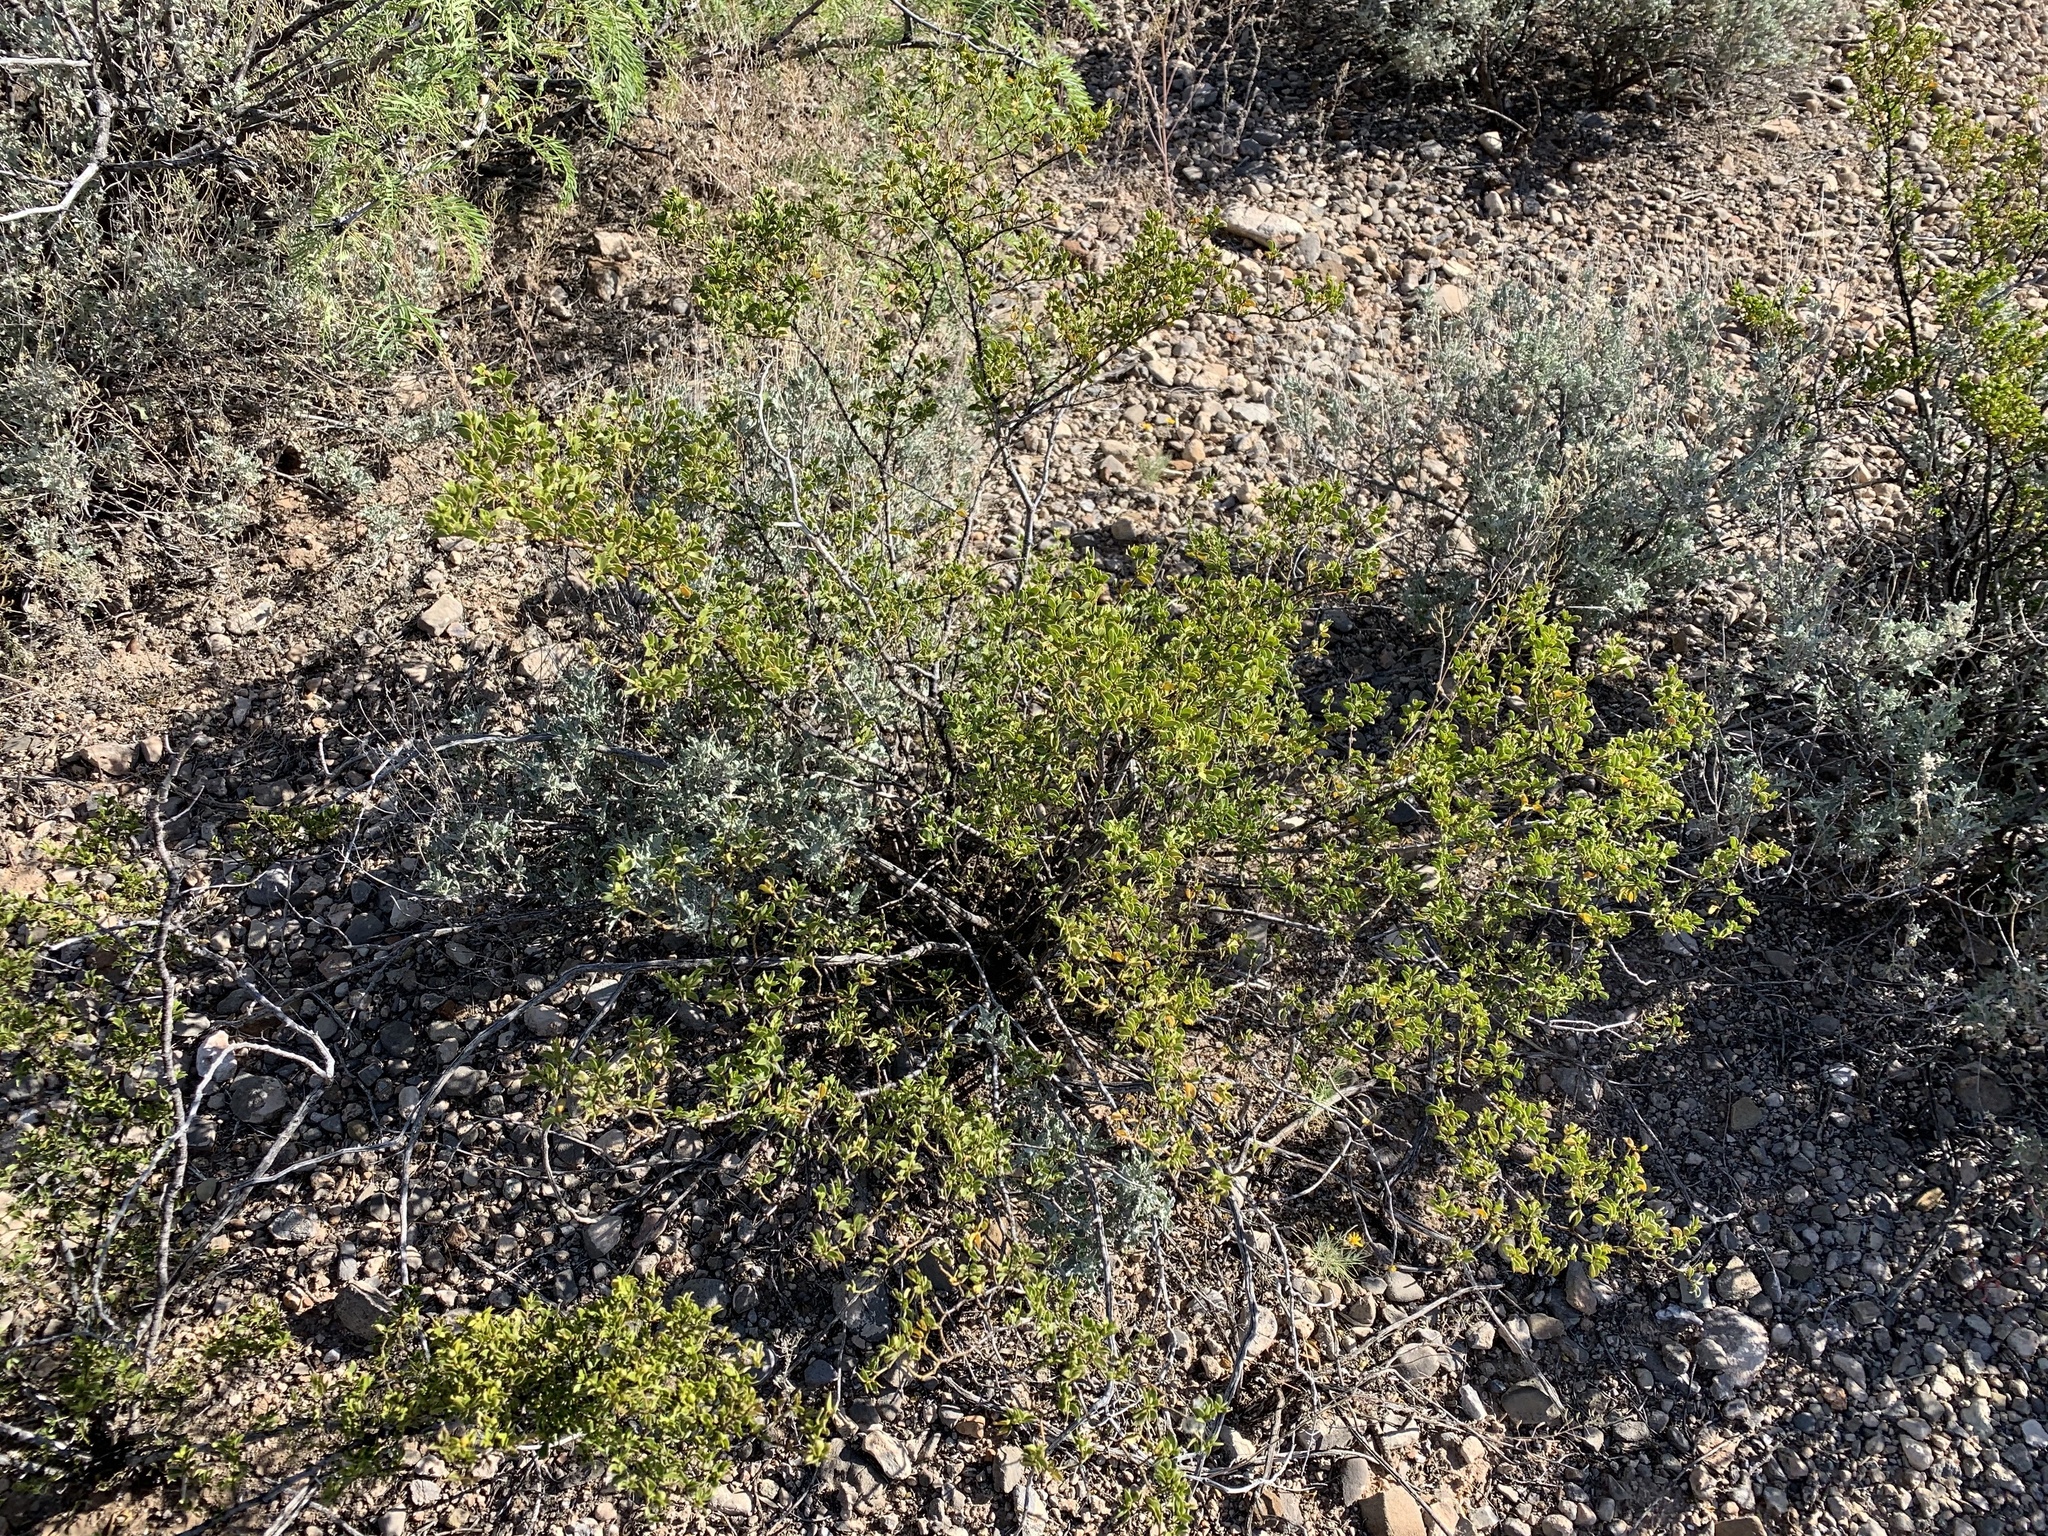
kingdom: Plantae
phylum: Tracheophyta
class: Magnoliopsida
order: Zygophyllales
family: Zygophyllaceae
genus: Larrea
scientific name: Larrea tridentata
